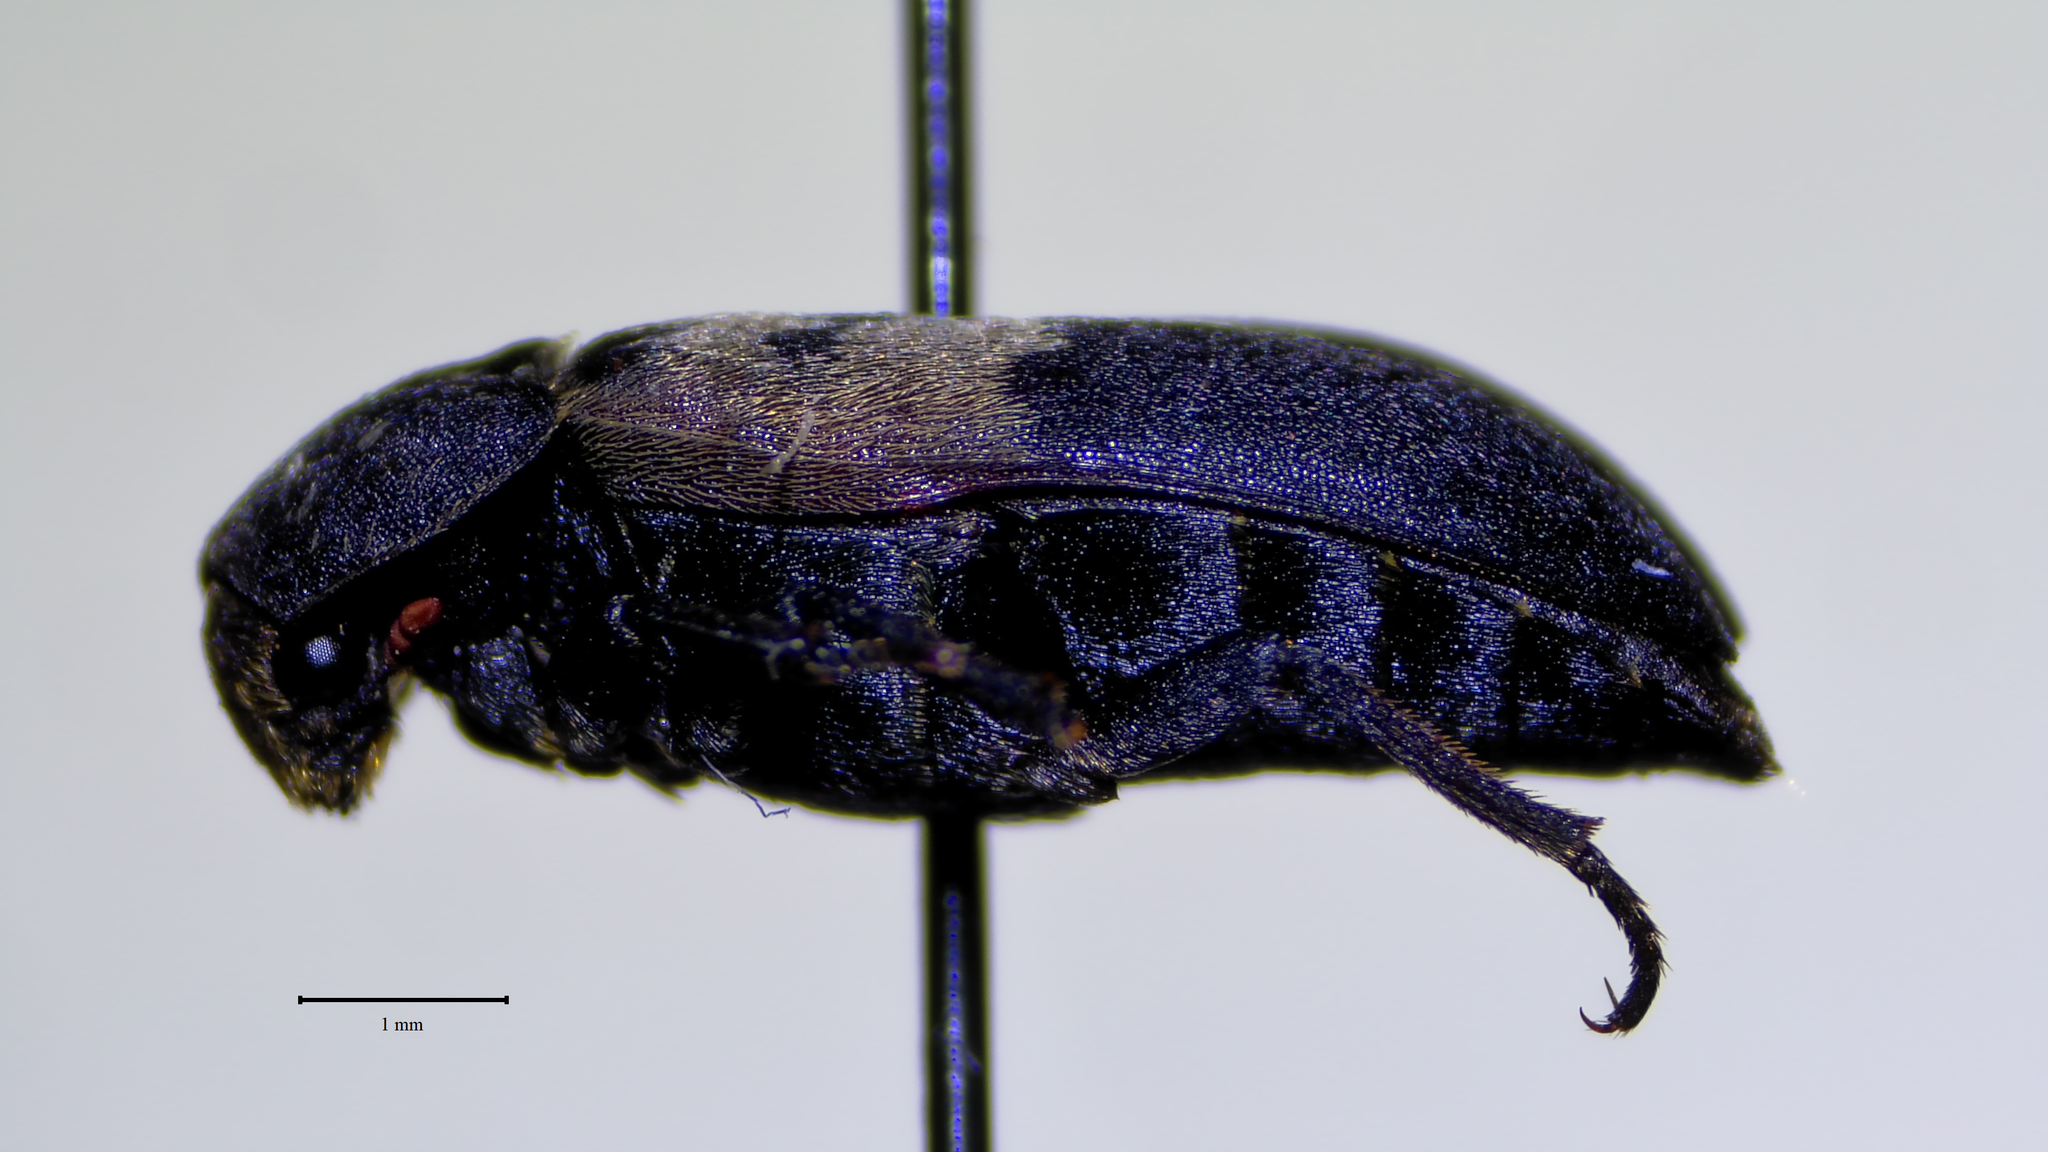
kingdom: Animalia
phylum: Arthropoda
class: Insecta
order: Coleoptera
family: Dermestidae
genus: Dermestes
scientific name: Dermestes lardarius
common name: Larder beetle
